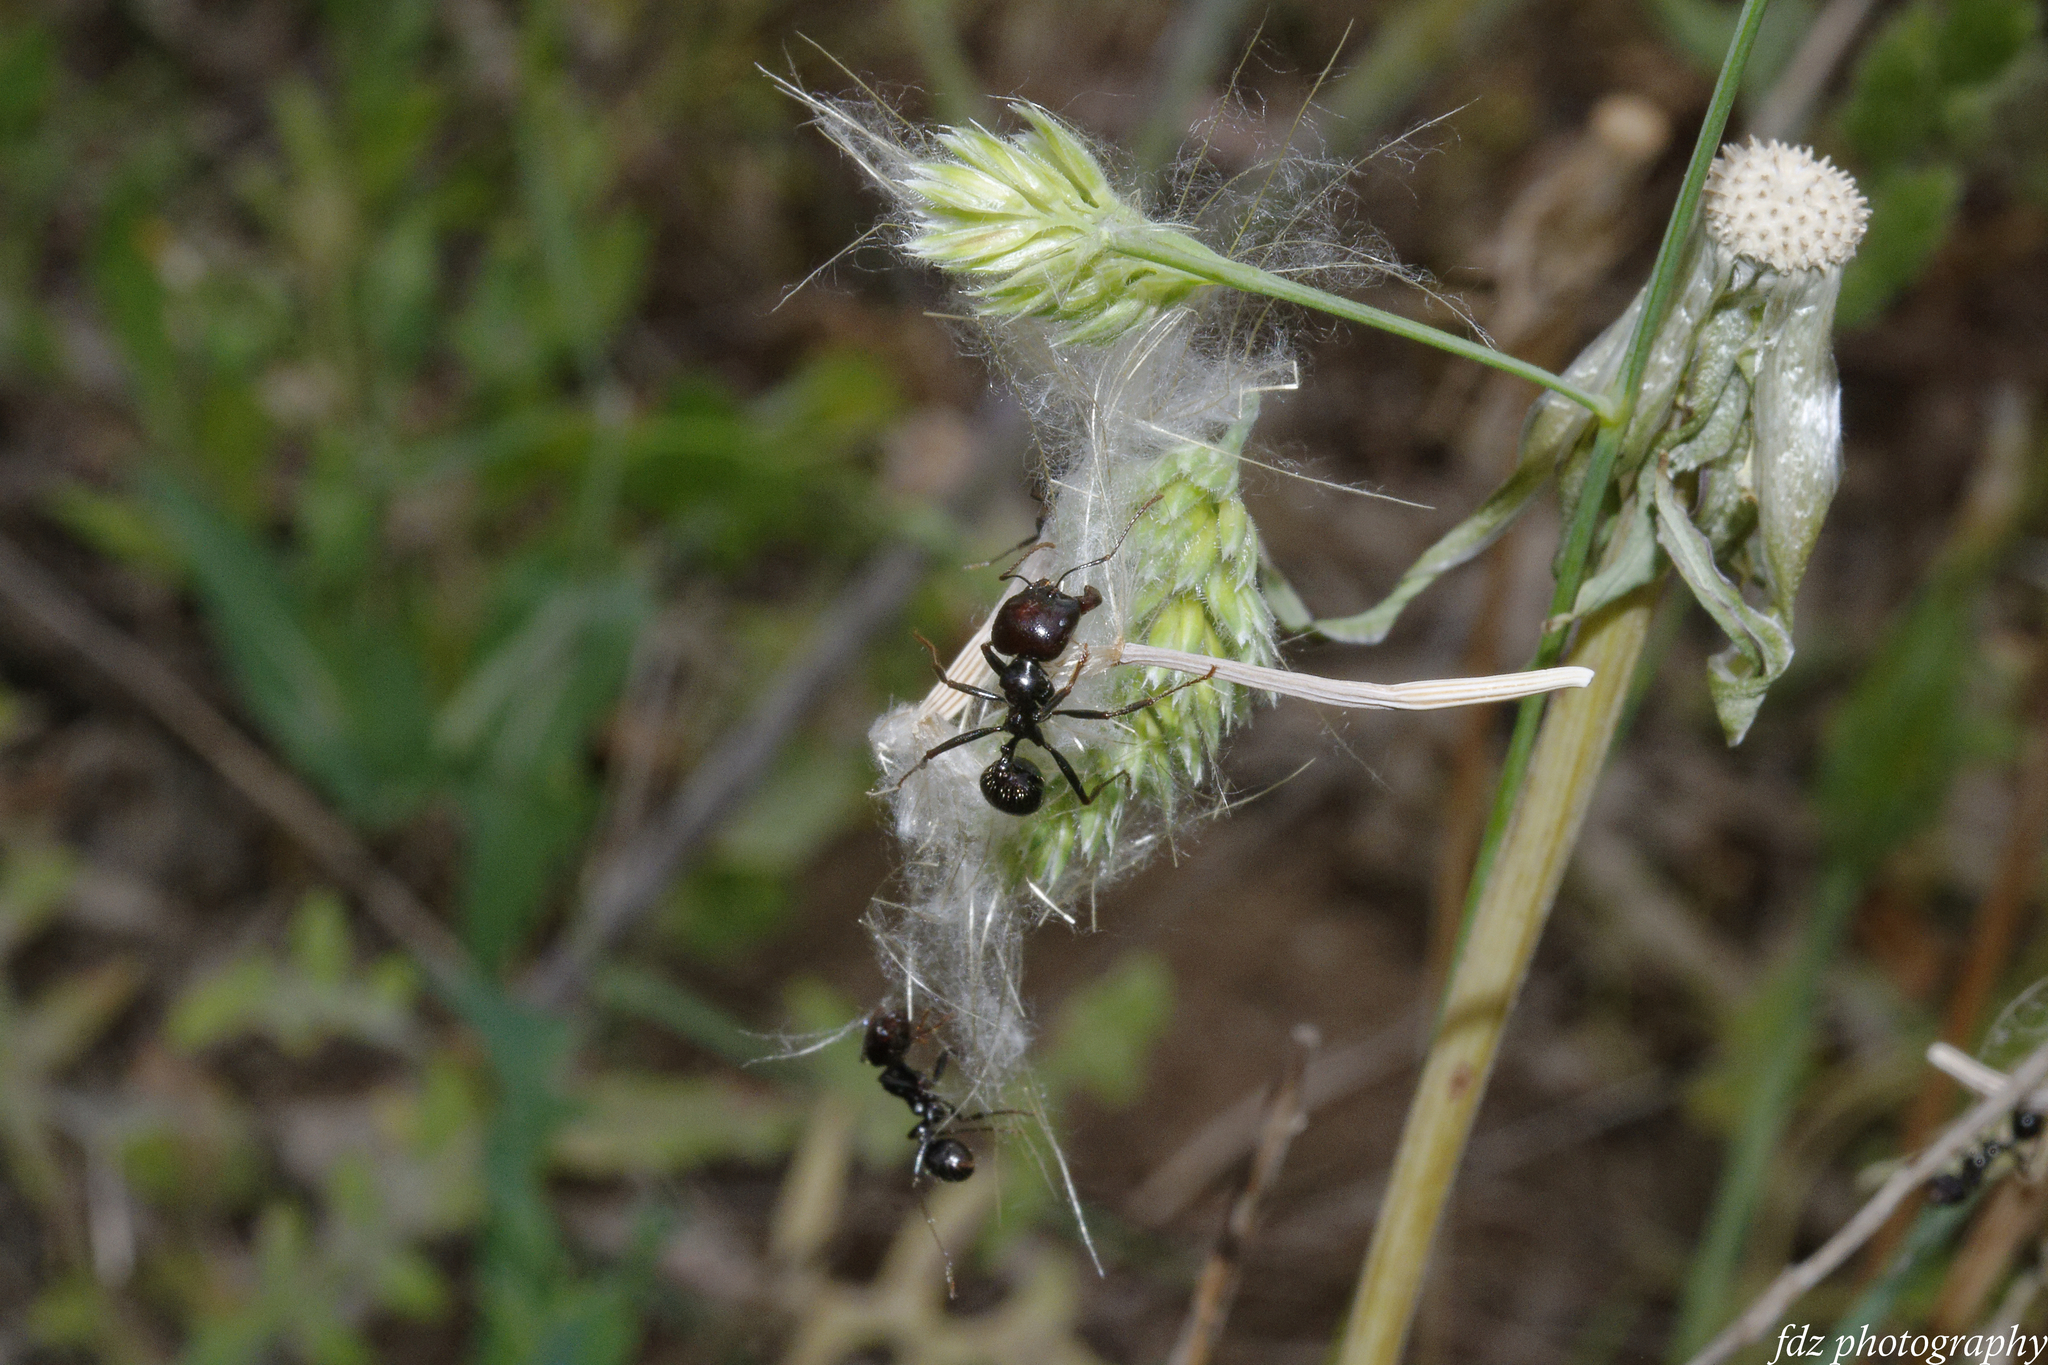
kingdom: Animalia
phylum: Arthropoda
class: Insecta
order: Hymenoptera
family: Formicidae
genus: Messor
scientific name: Messor barbarus
